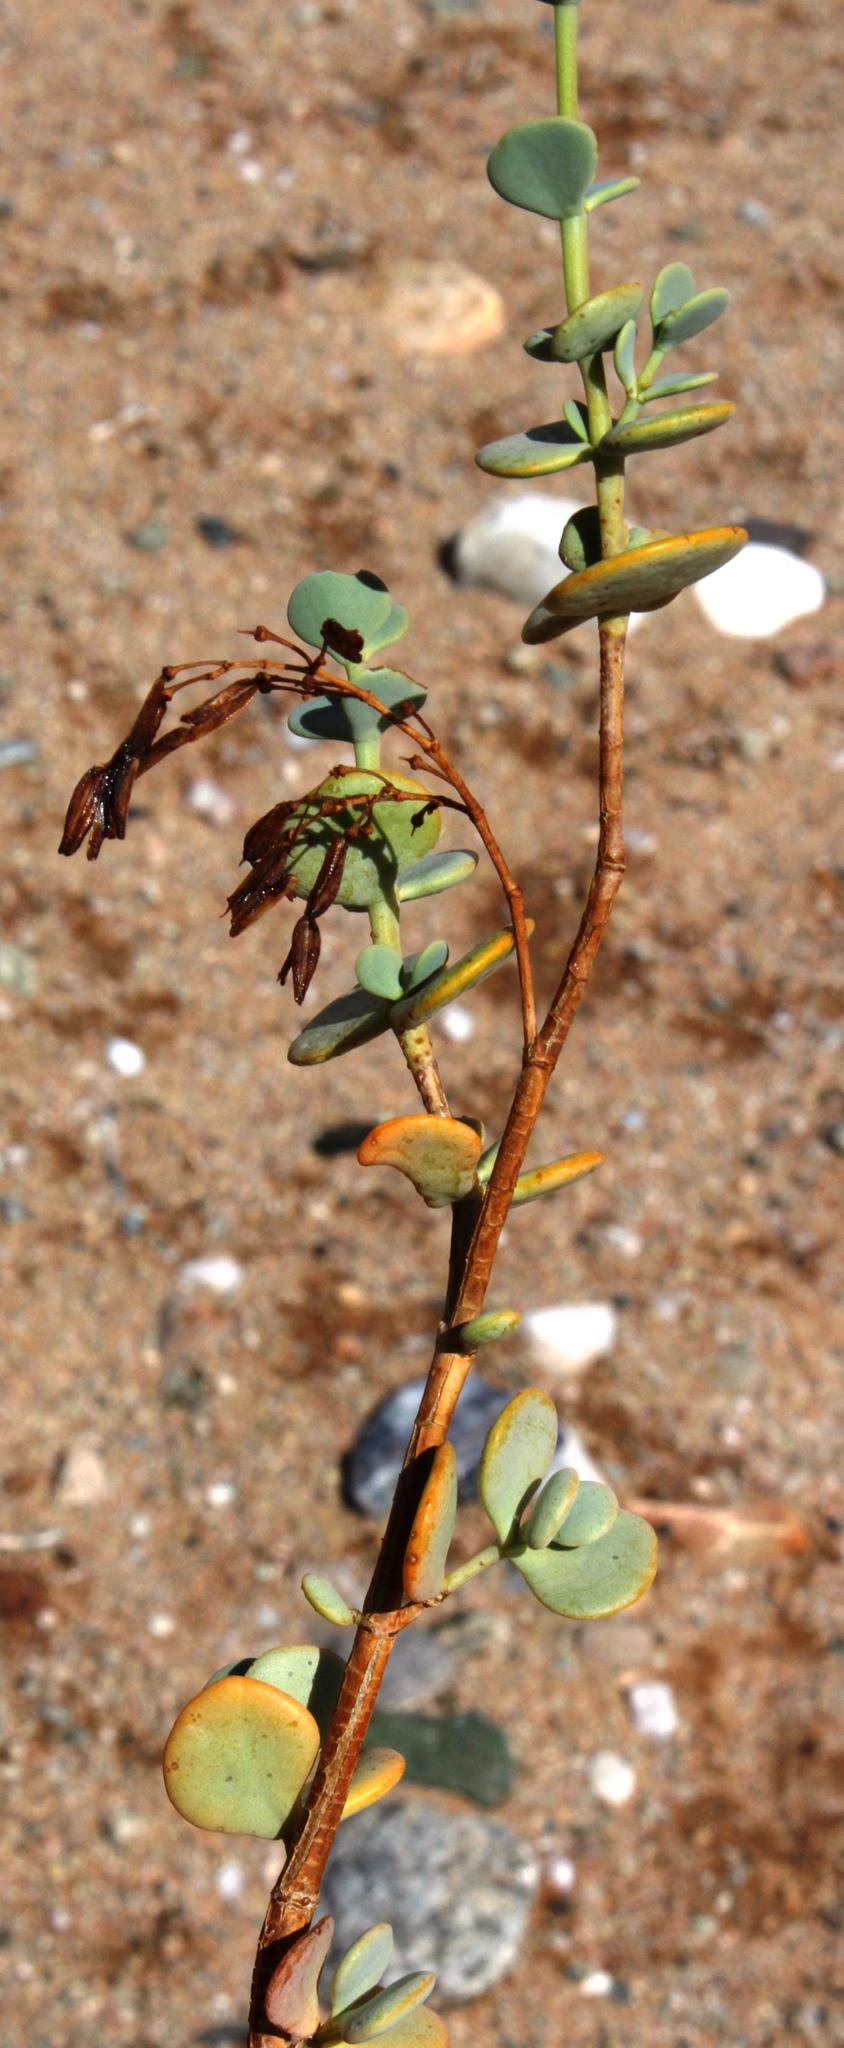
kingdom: Plantae
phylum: Tracheophyta
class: Magnoliopsida
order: Zygophyllales
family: Zygophyllaceae
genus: Tetraena
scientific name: Tetraena prismatocarpa
